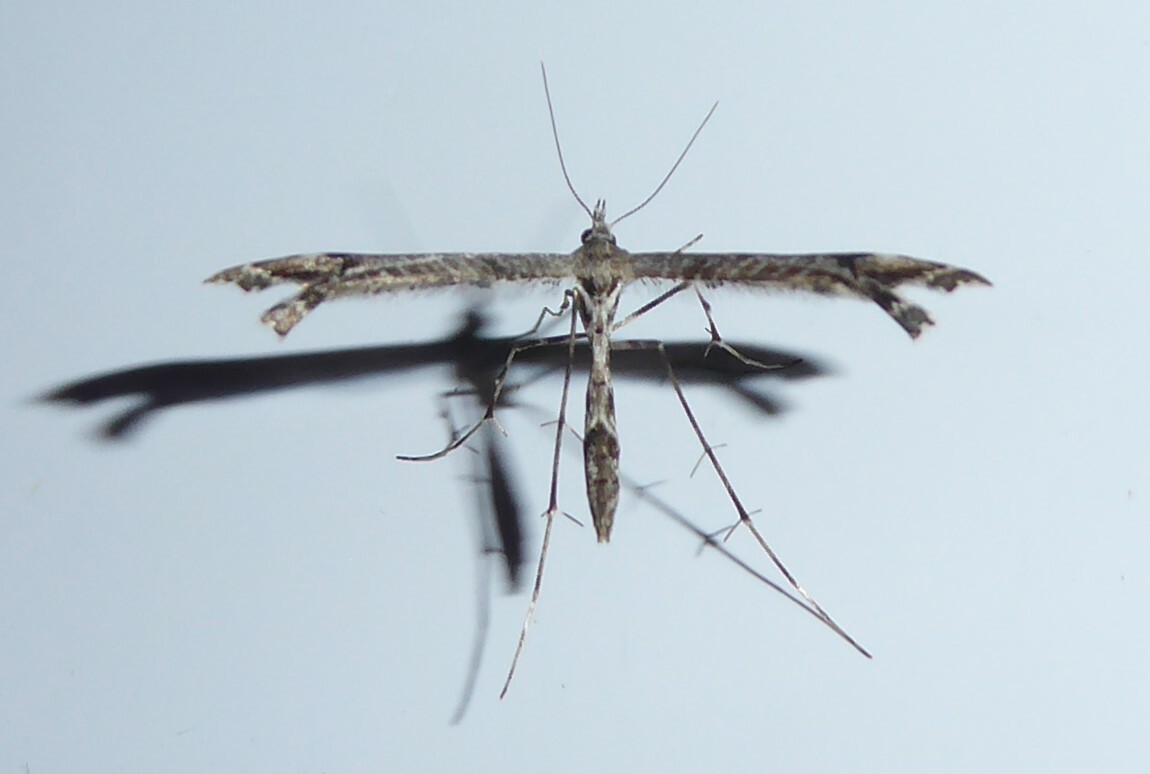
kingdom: Animalia
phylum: Arthropoda
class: Insecta
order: Lepidoptera
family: Pterophoridae
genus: Amblyptilia
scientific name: Amblyptilia repletalis
